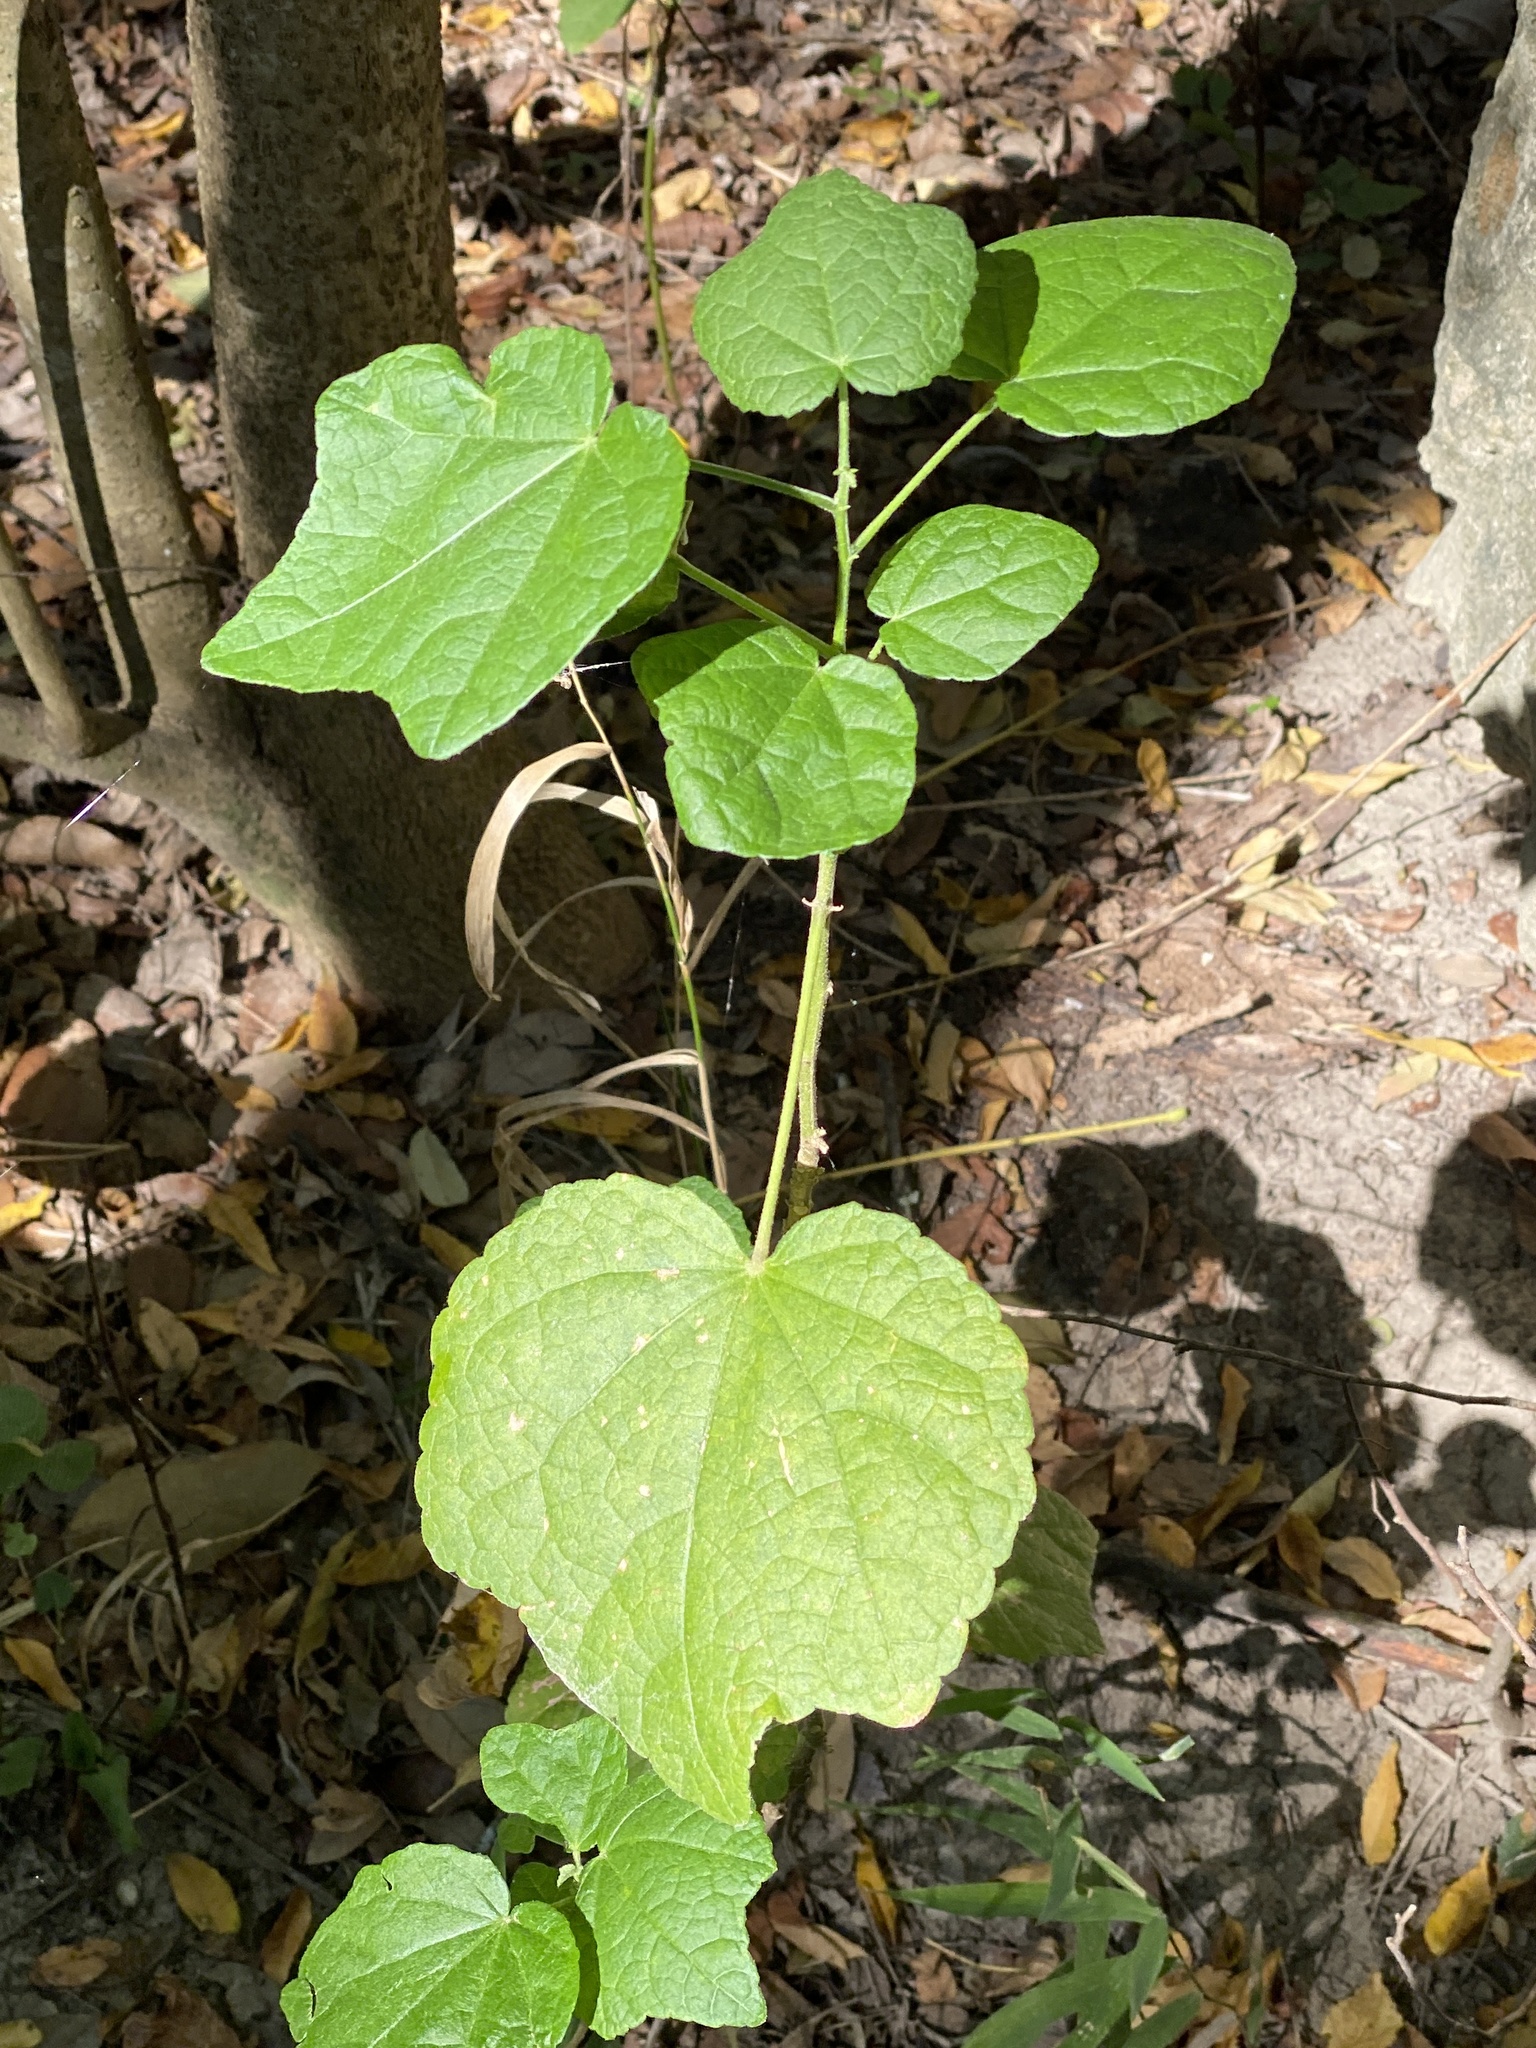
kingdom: Plantae
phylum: Tracheophyta
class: Magnoliopsida
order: Malvales
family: Malvaceae
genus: Malvaviscus
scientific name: Malvaviscus arboreus
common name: Wax mallow
